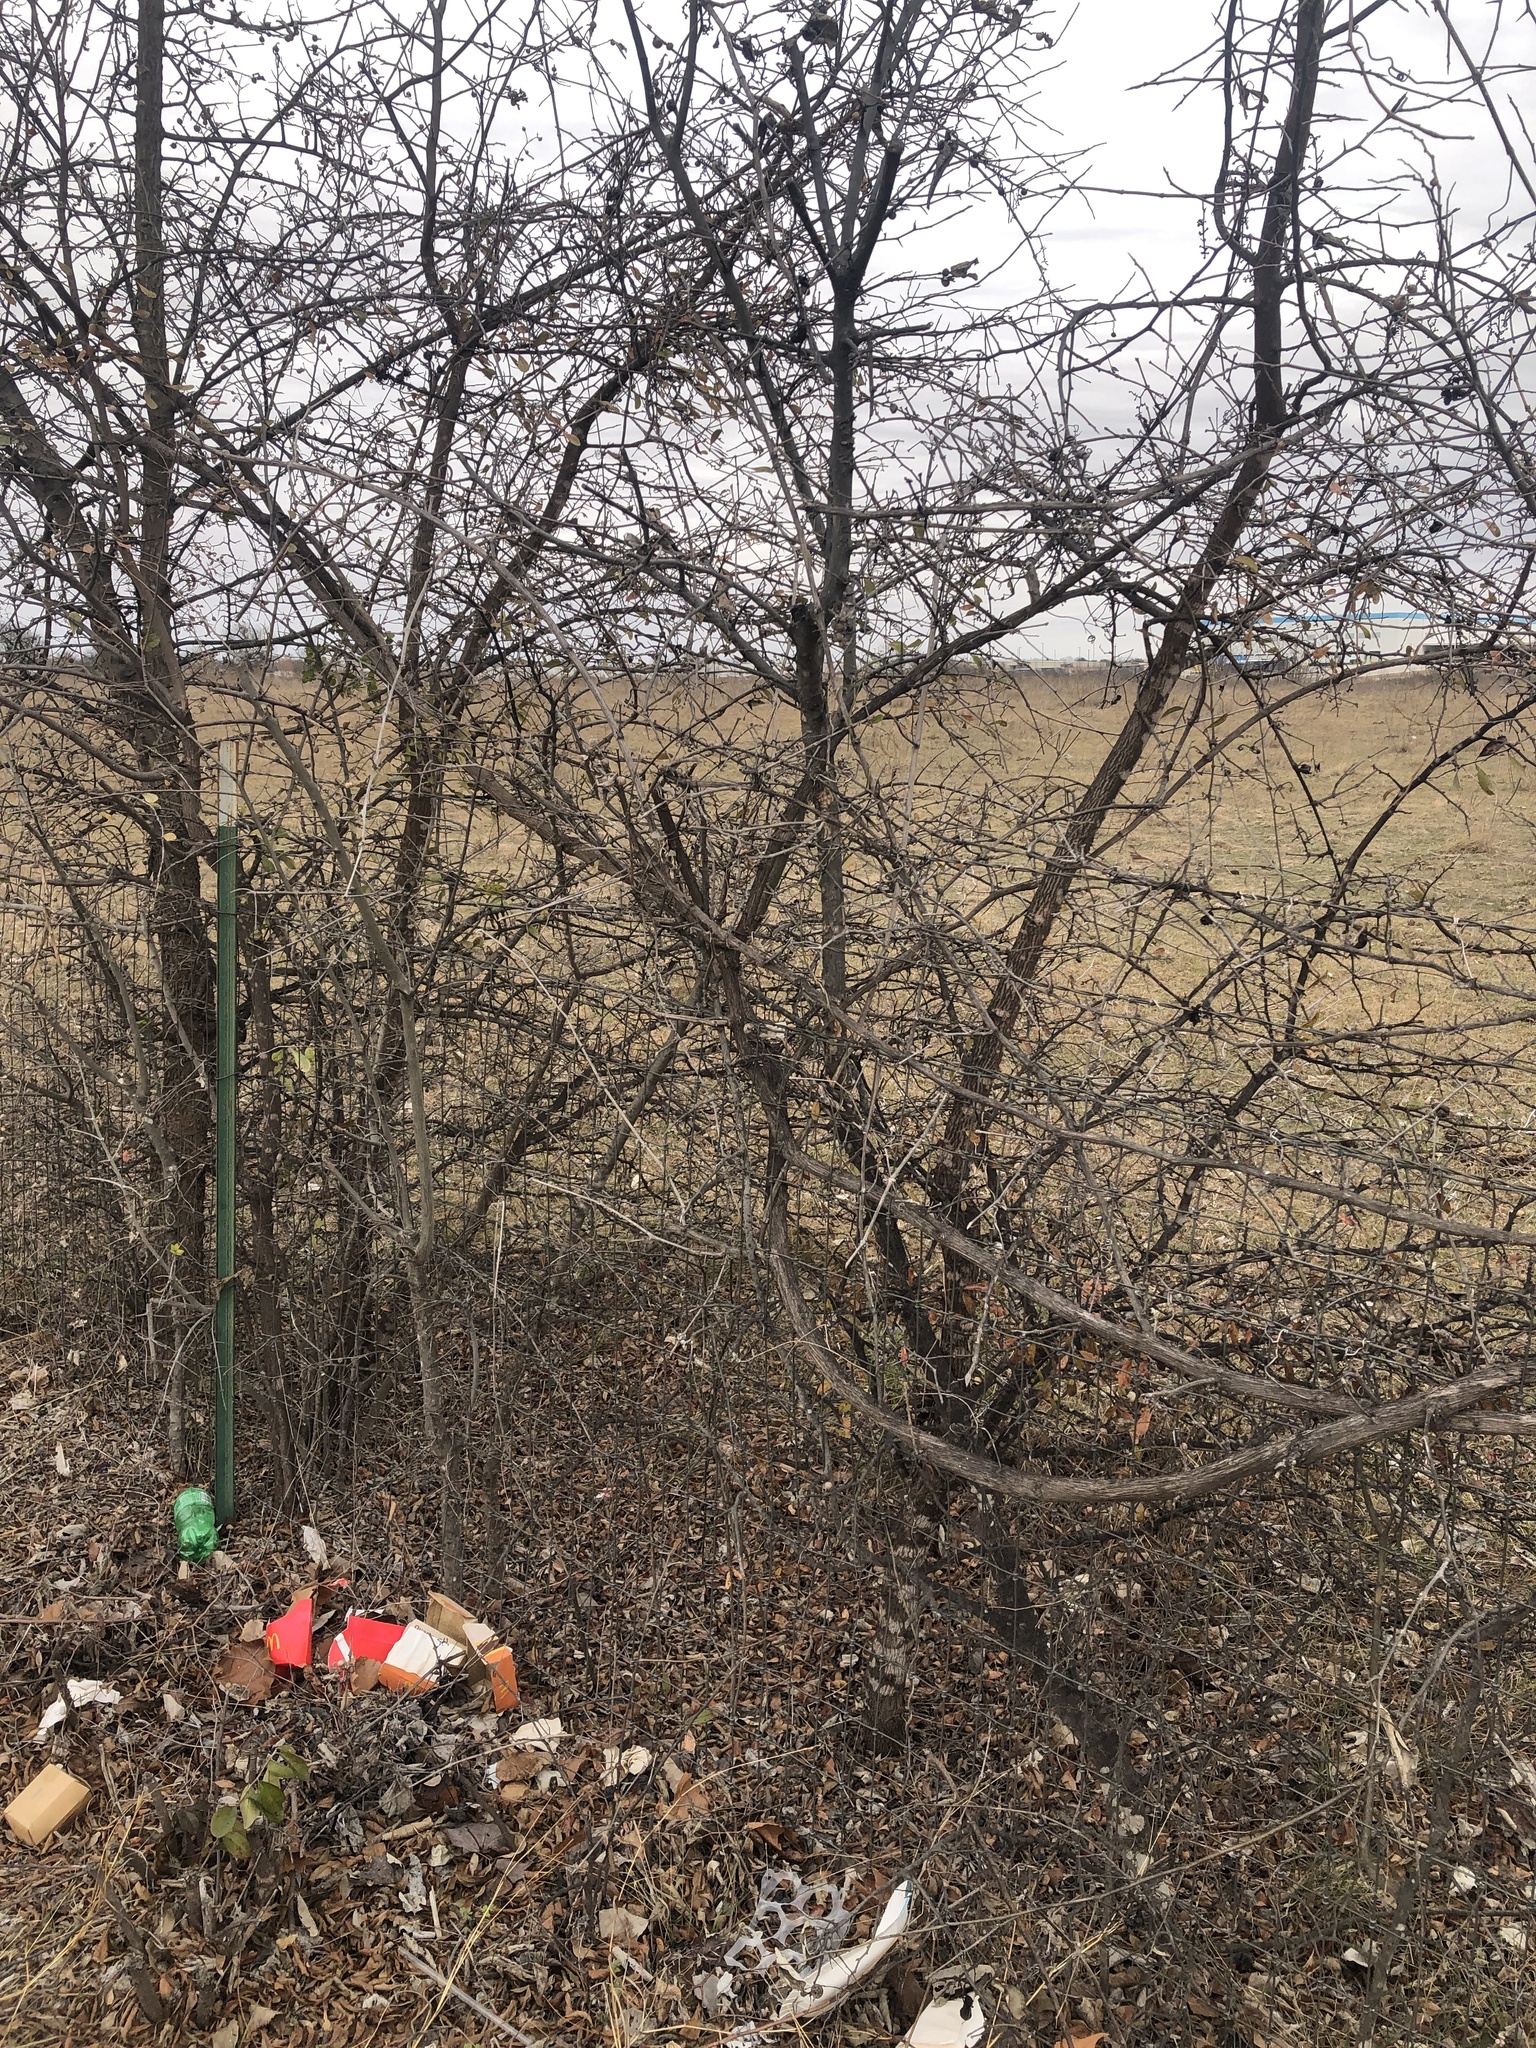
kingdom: Plantae
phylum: Tracheophyta
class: Magnoliopsida
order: Vitales
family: Vitaceae
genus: Vitis
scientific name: Vitis mustangensis
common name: Mustang grape
